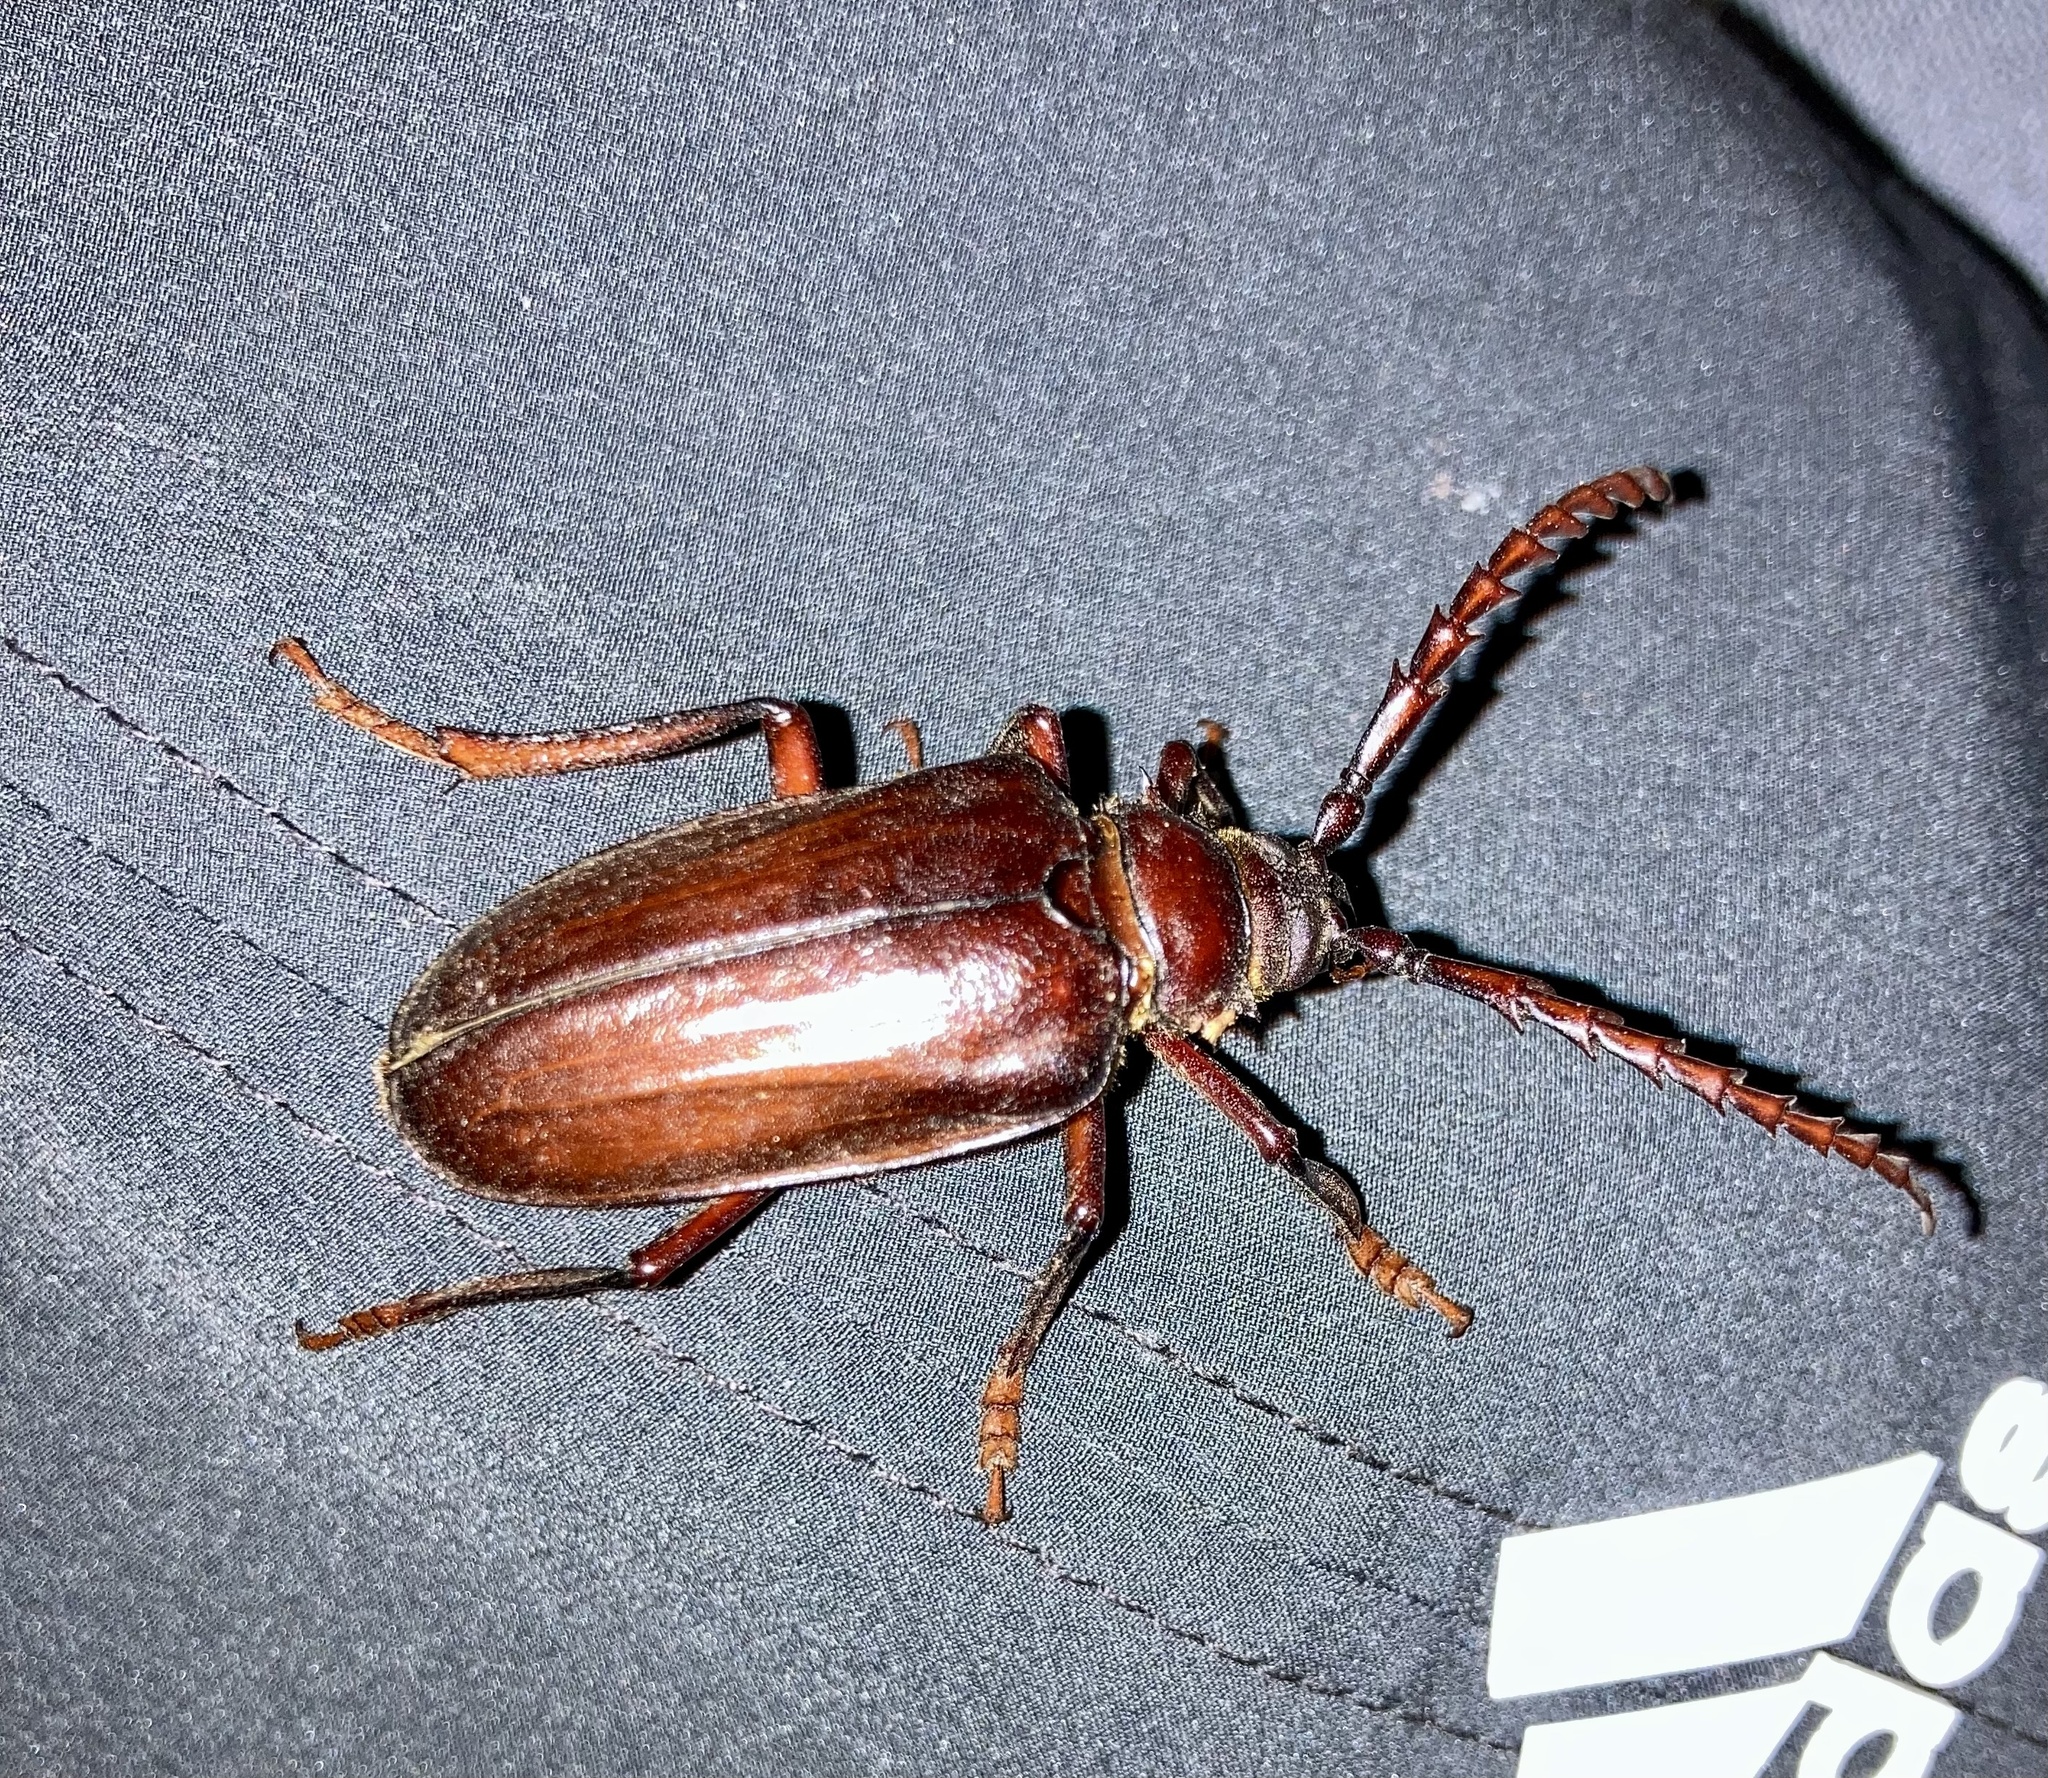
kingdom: Animalia
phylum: Arthropoda
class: Insecta
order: Coleoptera
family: Cerambycidae
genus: Prionus
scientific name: Prionus californicus
